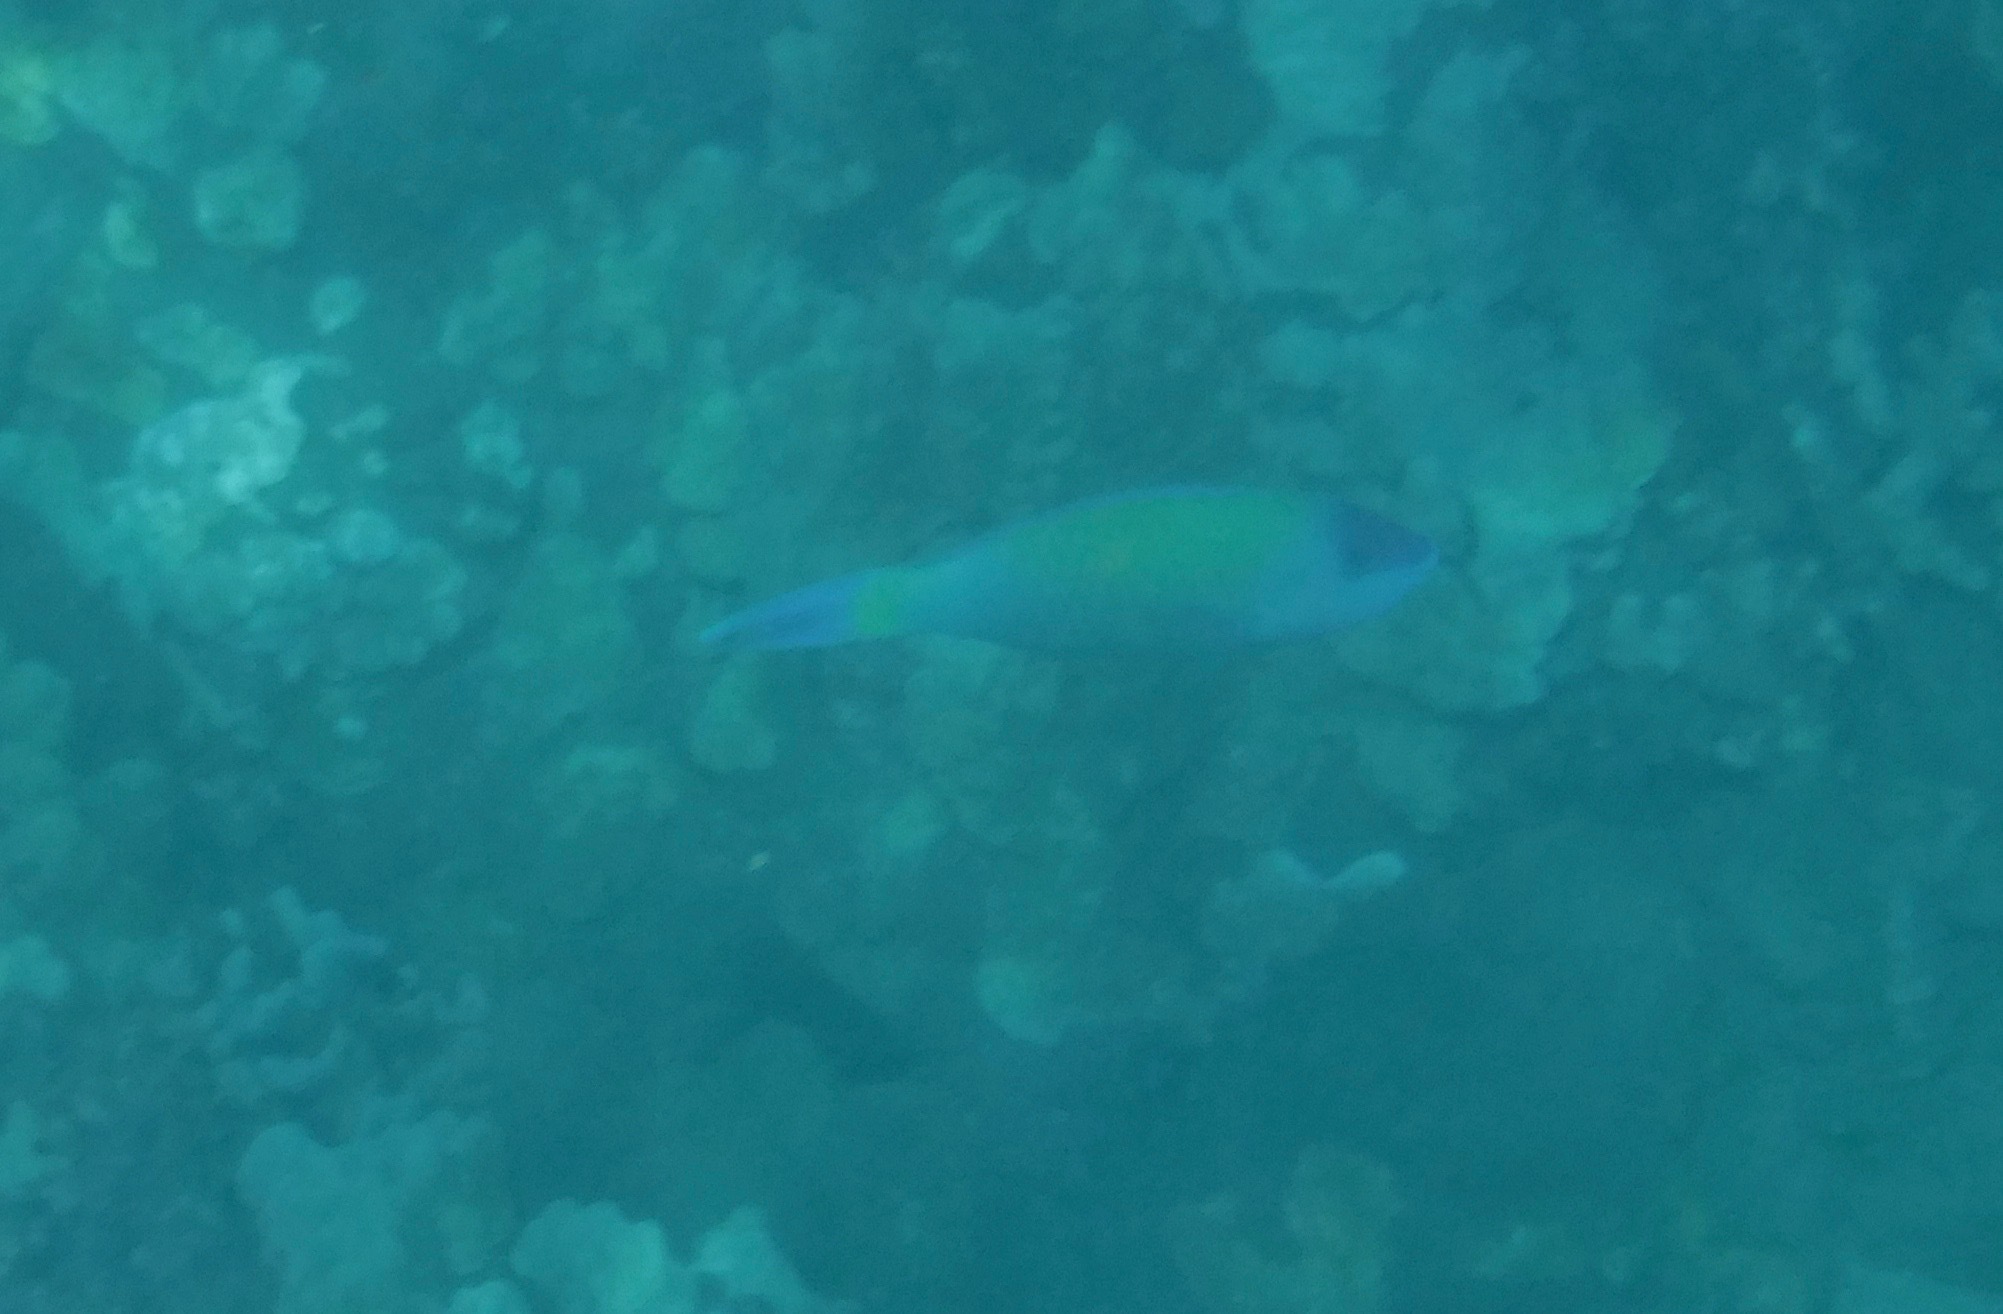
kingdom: Animalia
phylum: Chordata
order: Perciformes
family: Scaridae
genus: Scarus
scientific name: Scarus psittacus
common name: Palenose parrotfish
